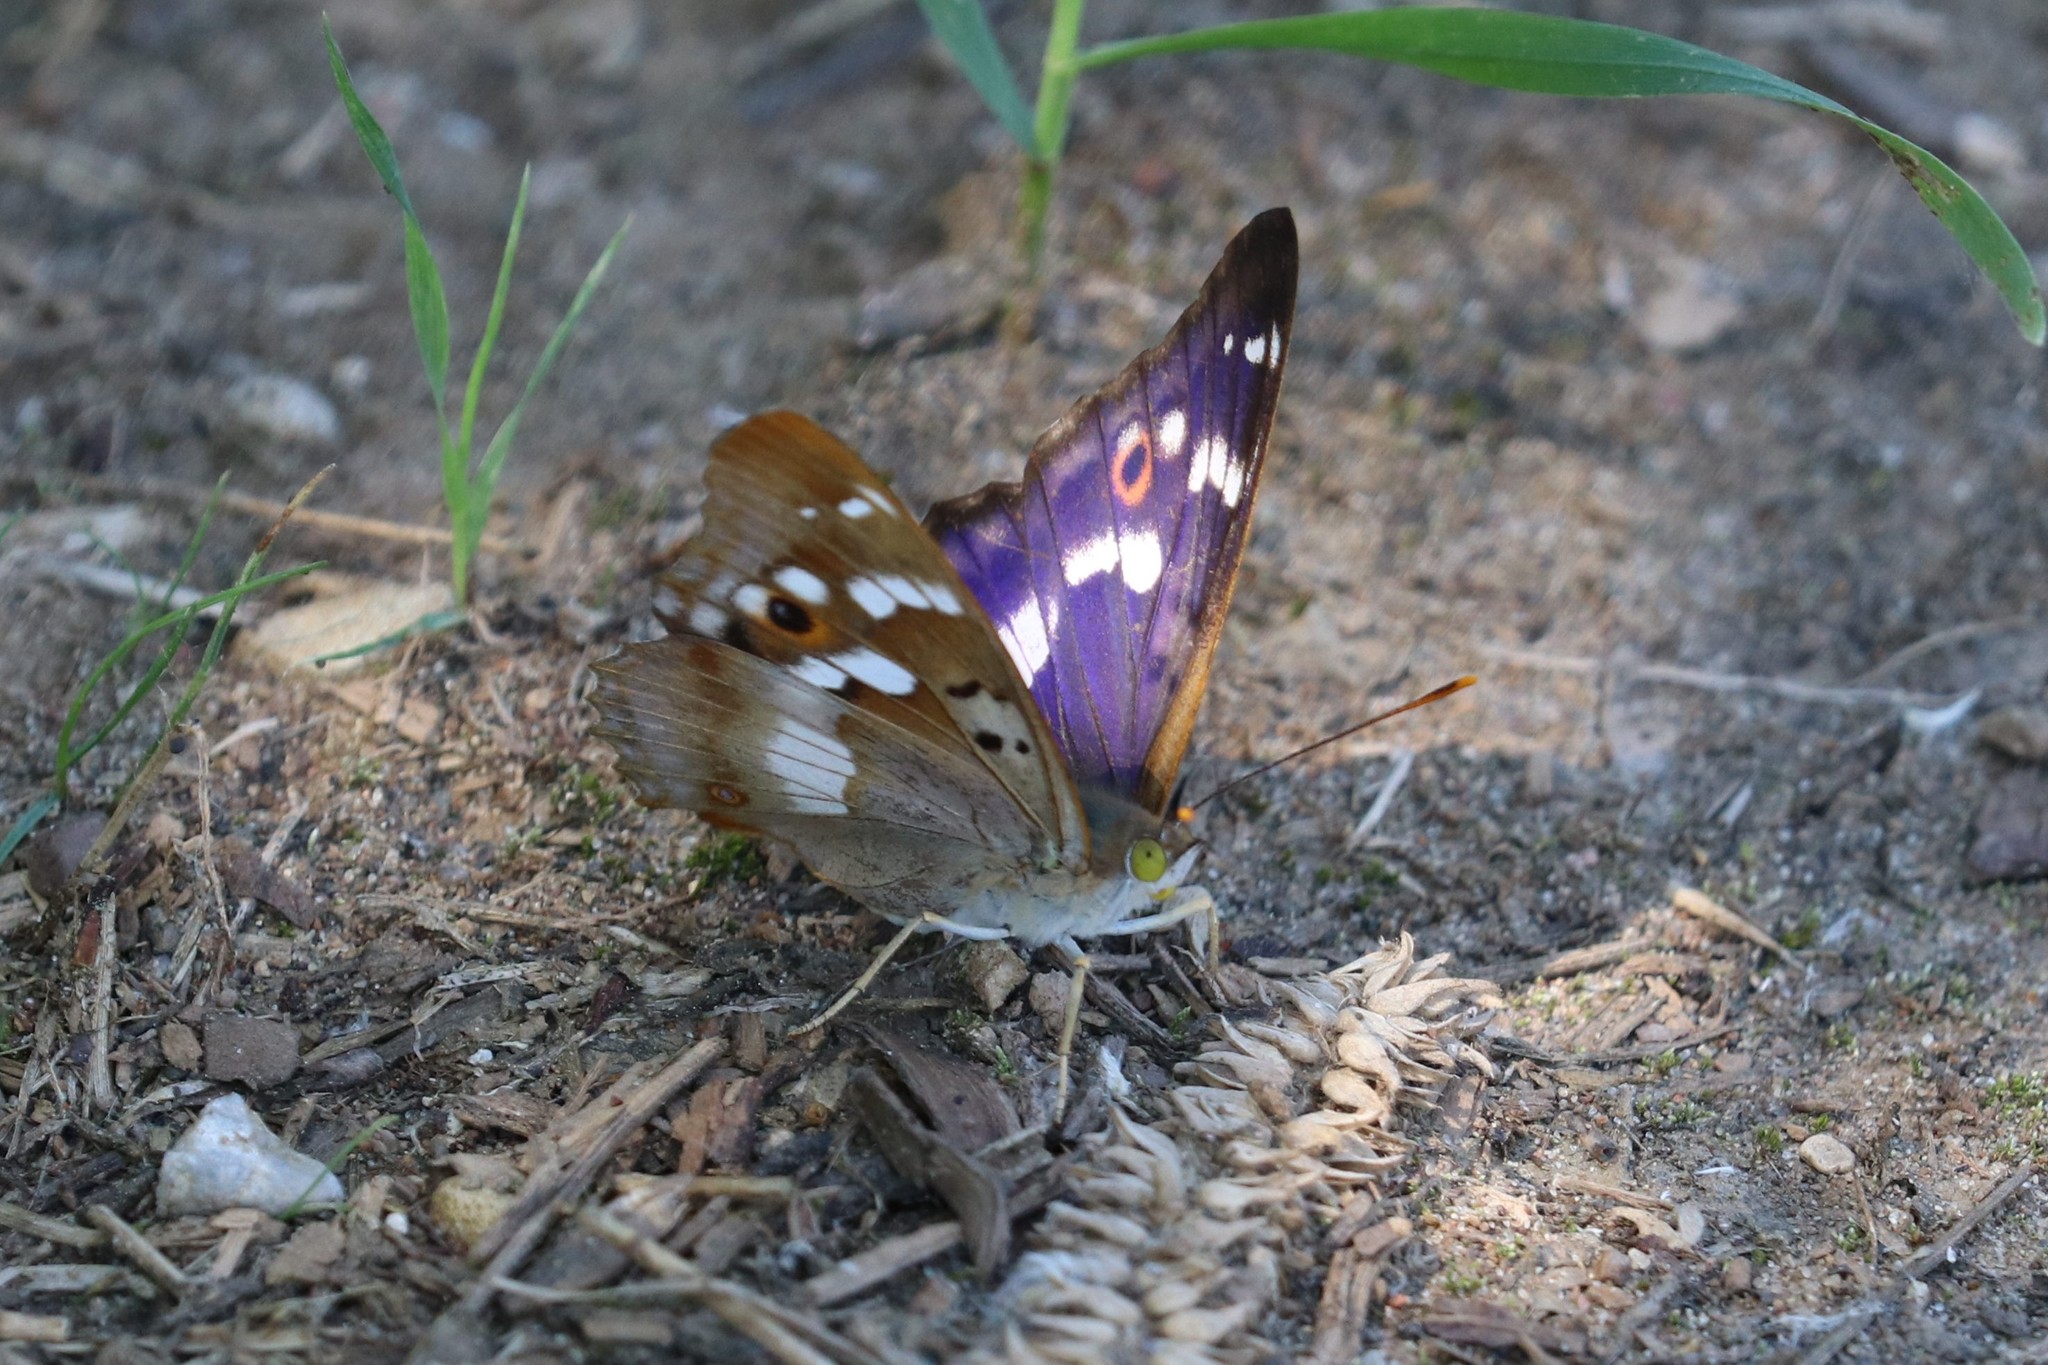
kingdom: Animalia
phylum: Arthropoda
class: Insecta
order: Lepidoptera
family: Nymphalidae
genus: Apatura
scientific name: Apatura ilia
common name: Lesser purple emperor
